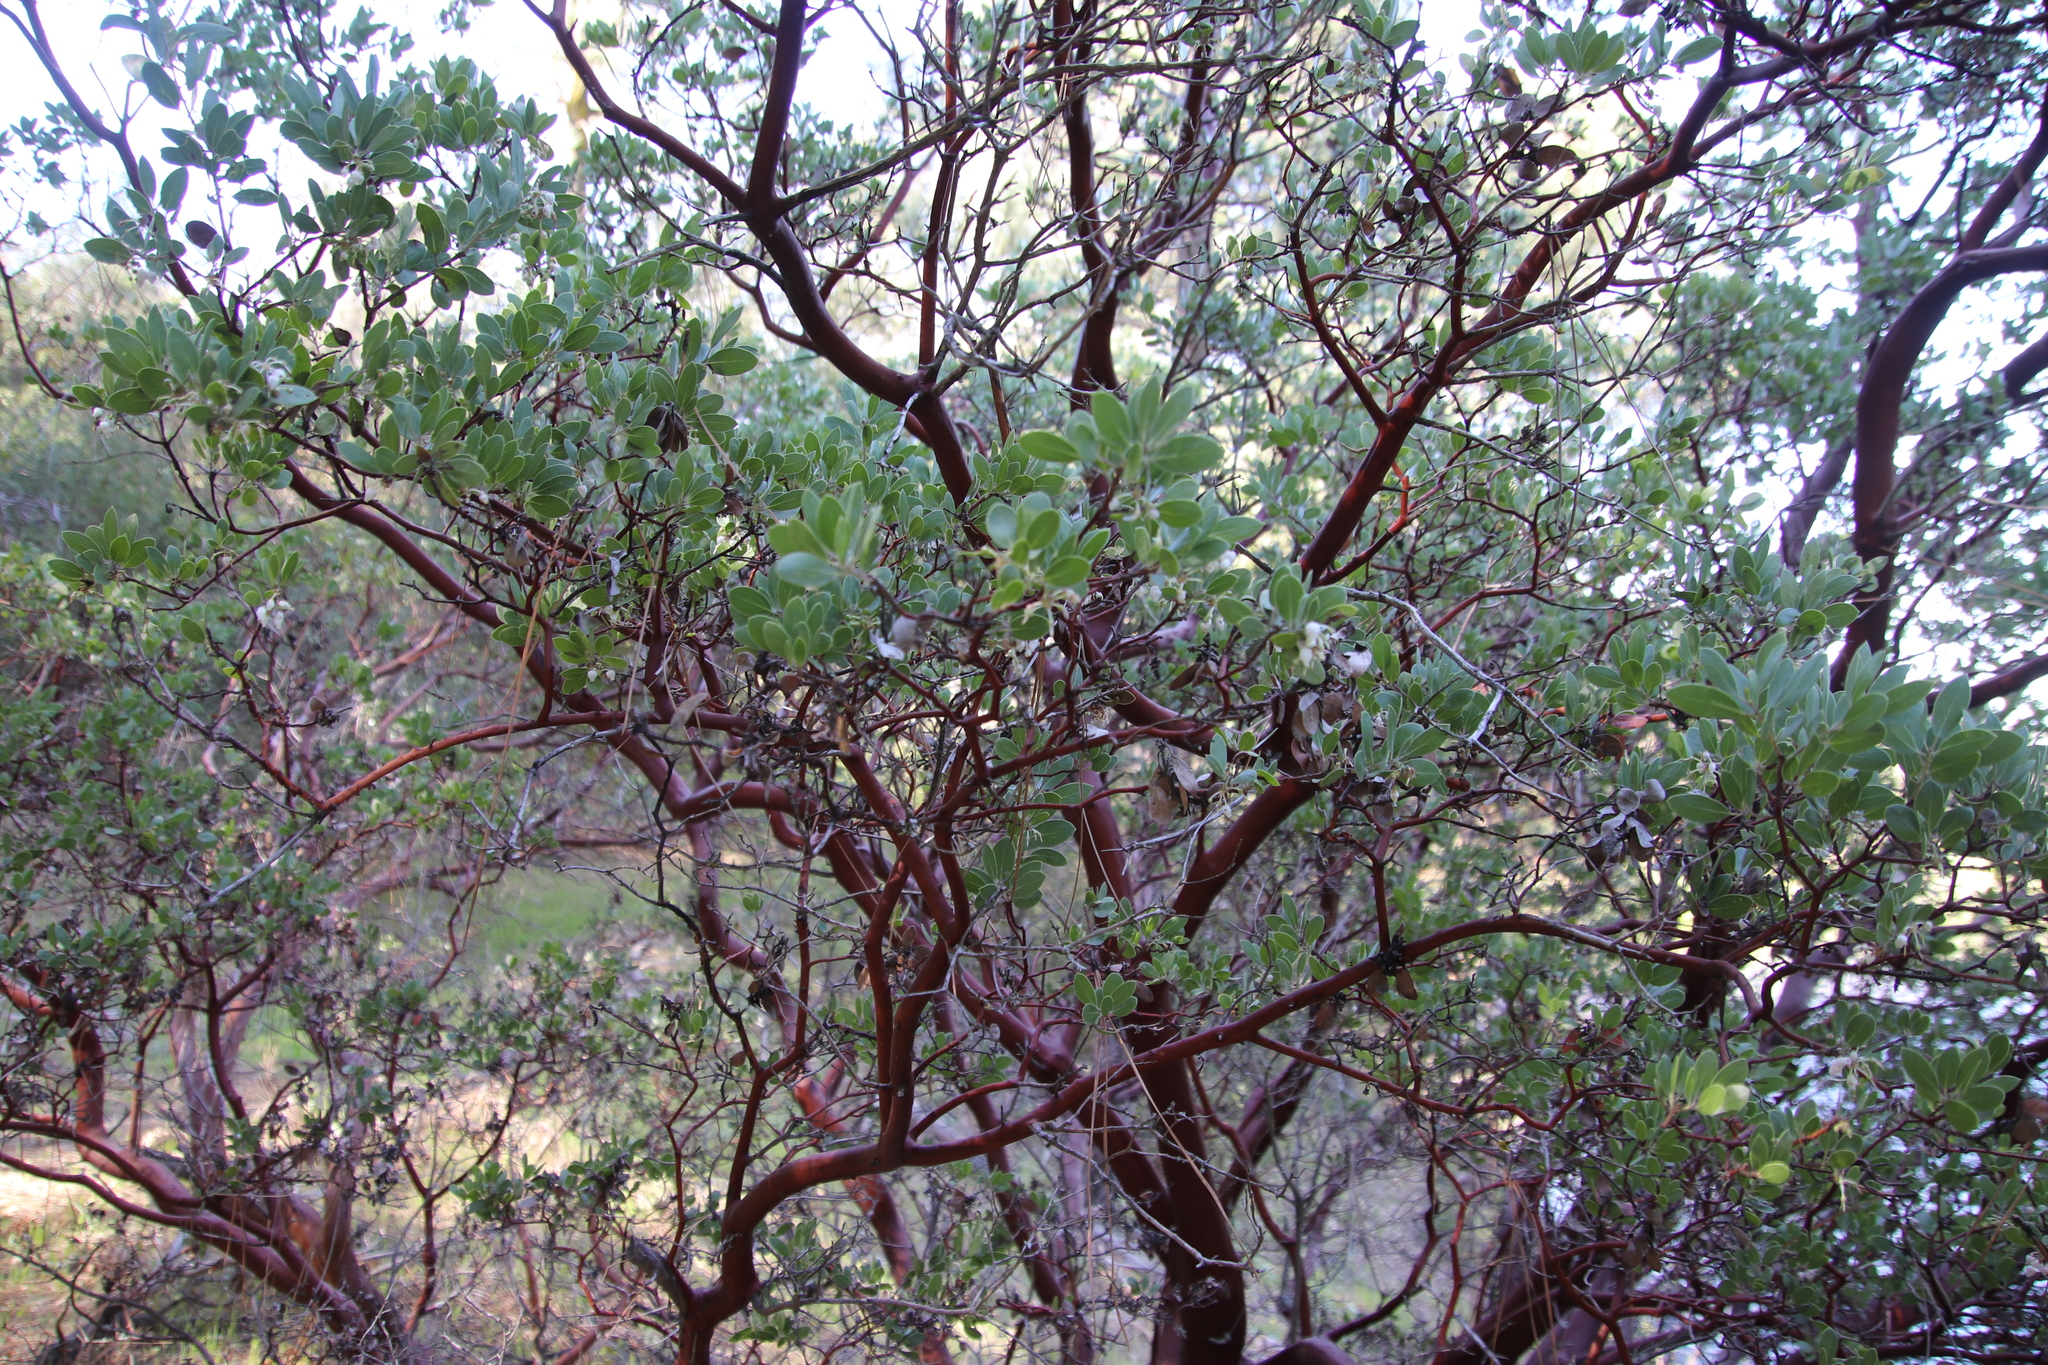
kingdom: Plantae
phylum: Tracheophyta
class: Magnoliopsida
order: Ericales
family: Ericaceae
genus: Arctostaphylos
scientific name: Arctostaphylos pungens
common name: Mexican manzanita
